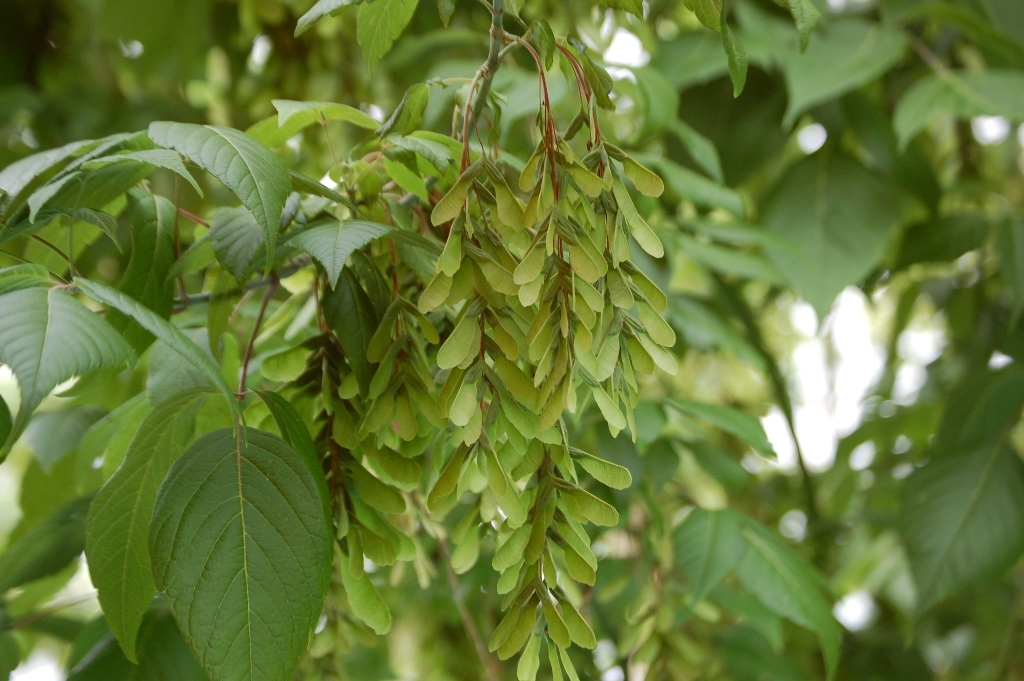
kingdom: Plantae
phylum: Tracheophyta
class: Magnoliopsida
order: Sapindales
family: Sapindaceae
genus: Acer
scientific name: Acer negundo
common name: Ashleaf maple
